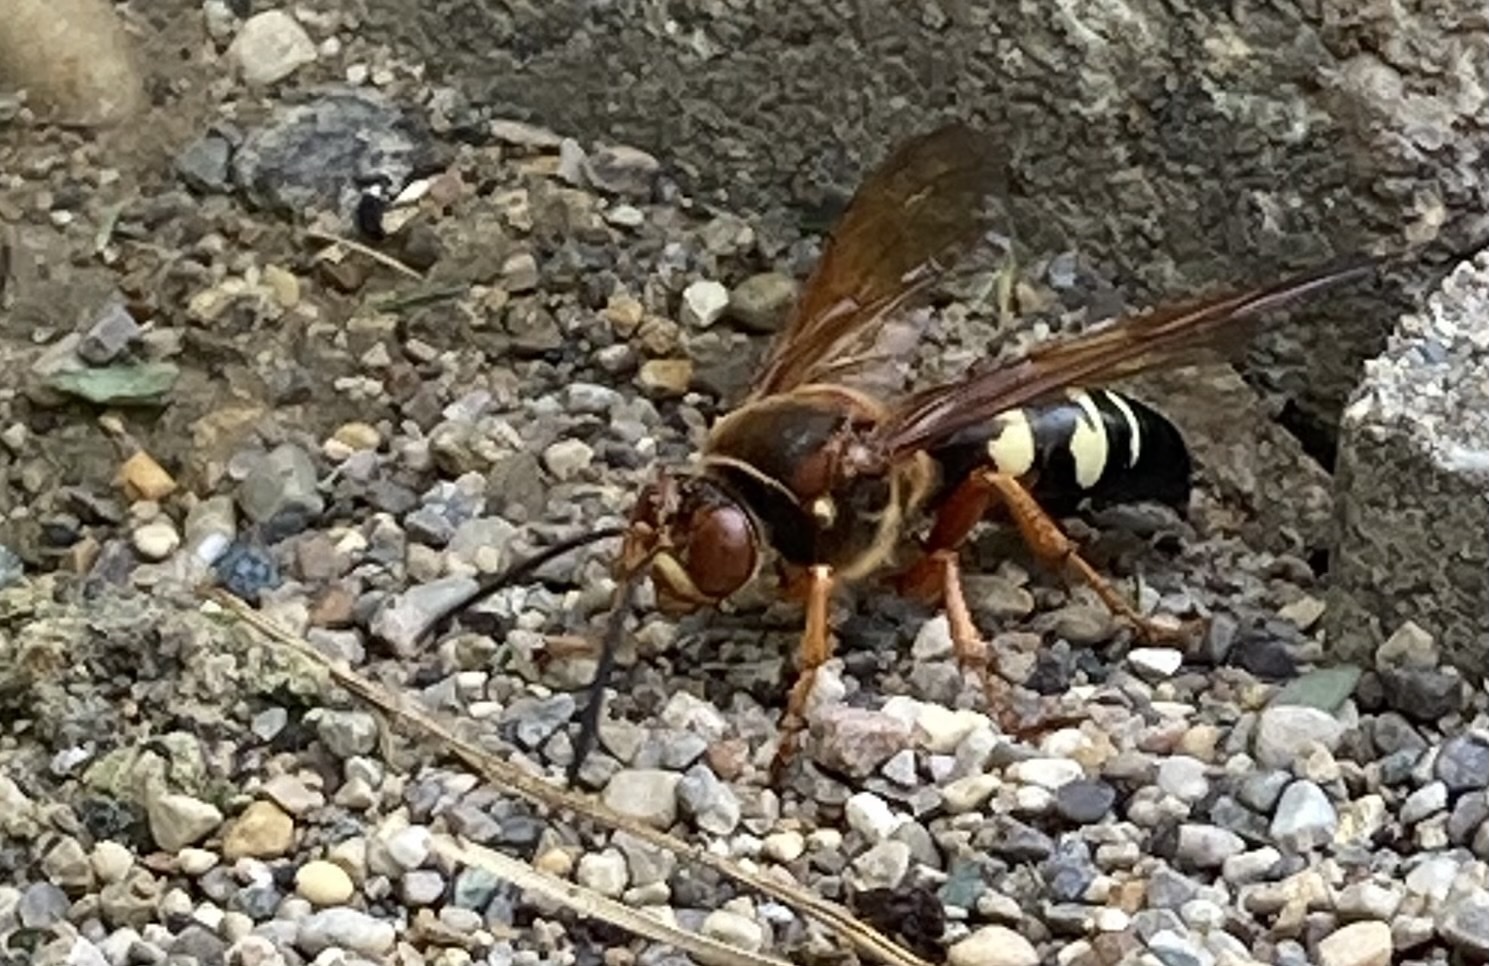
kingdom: Animalia
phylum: Arthropoda
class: Insecta
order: Hymenoptera
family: Crabronidae
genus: Sphecius
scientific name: Sphecius speciosus
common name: Cicada killer
